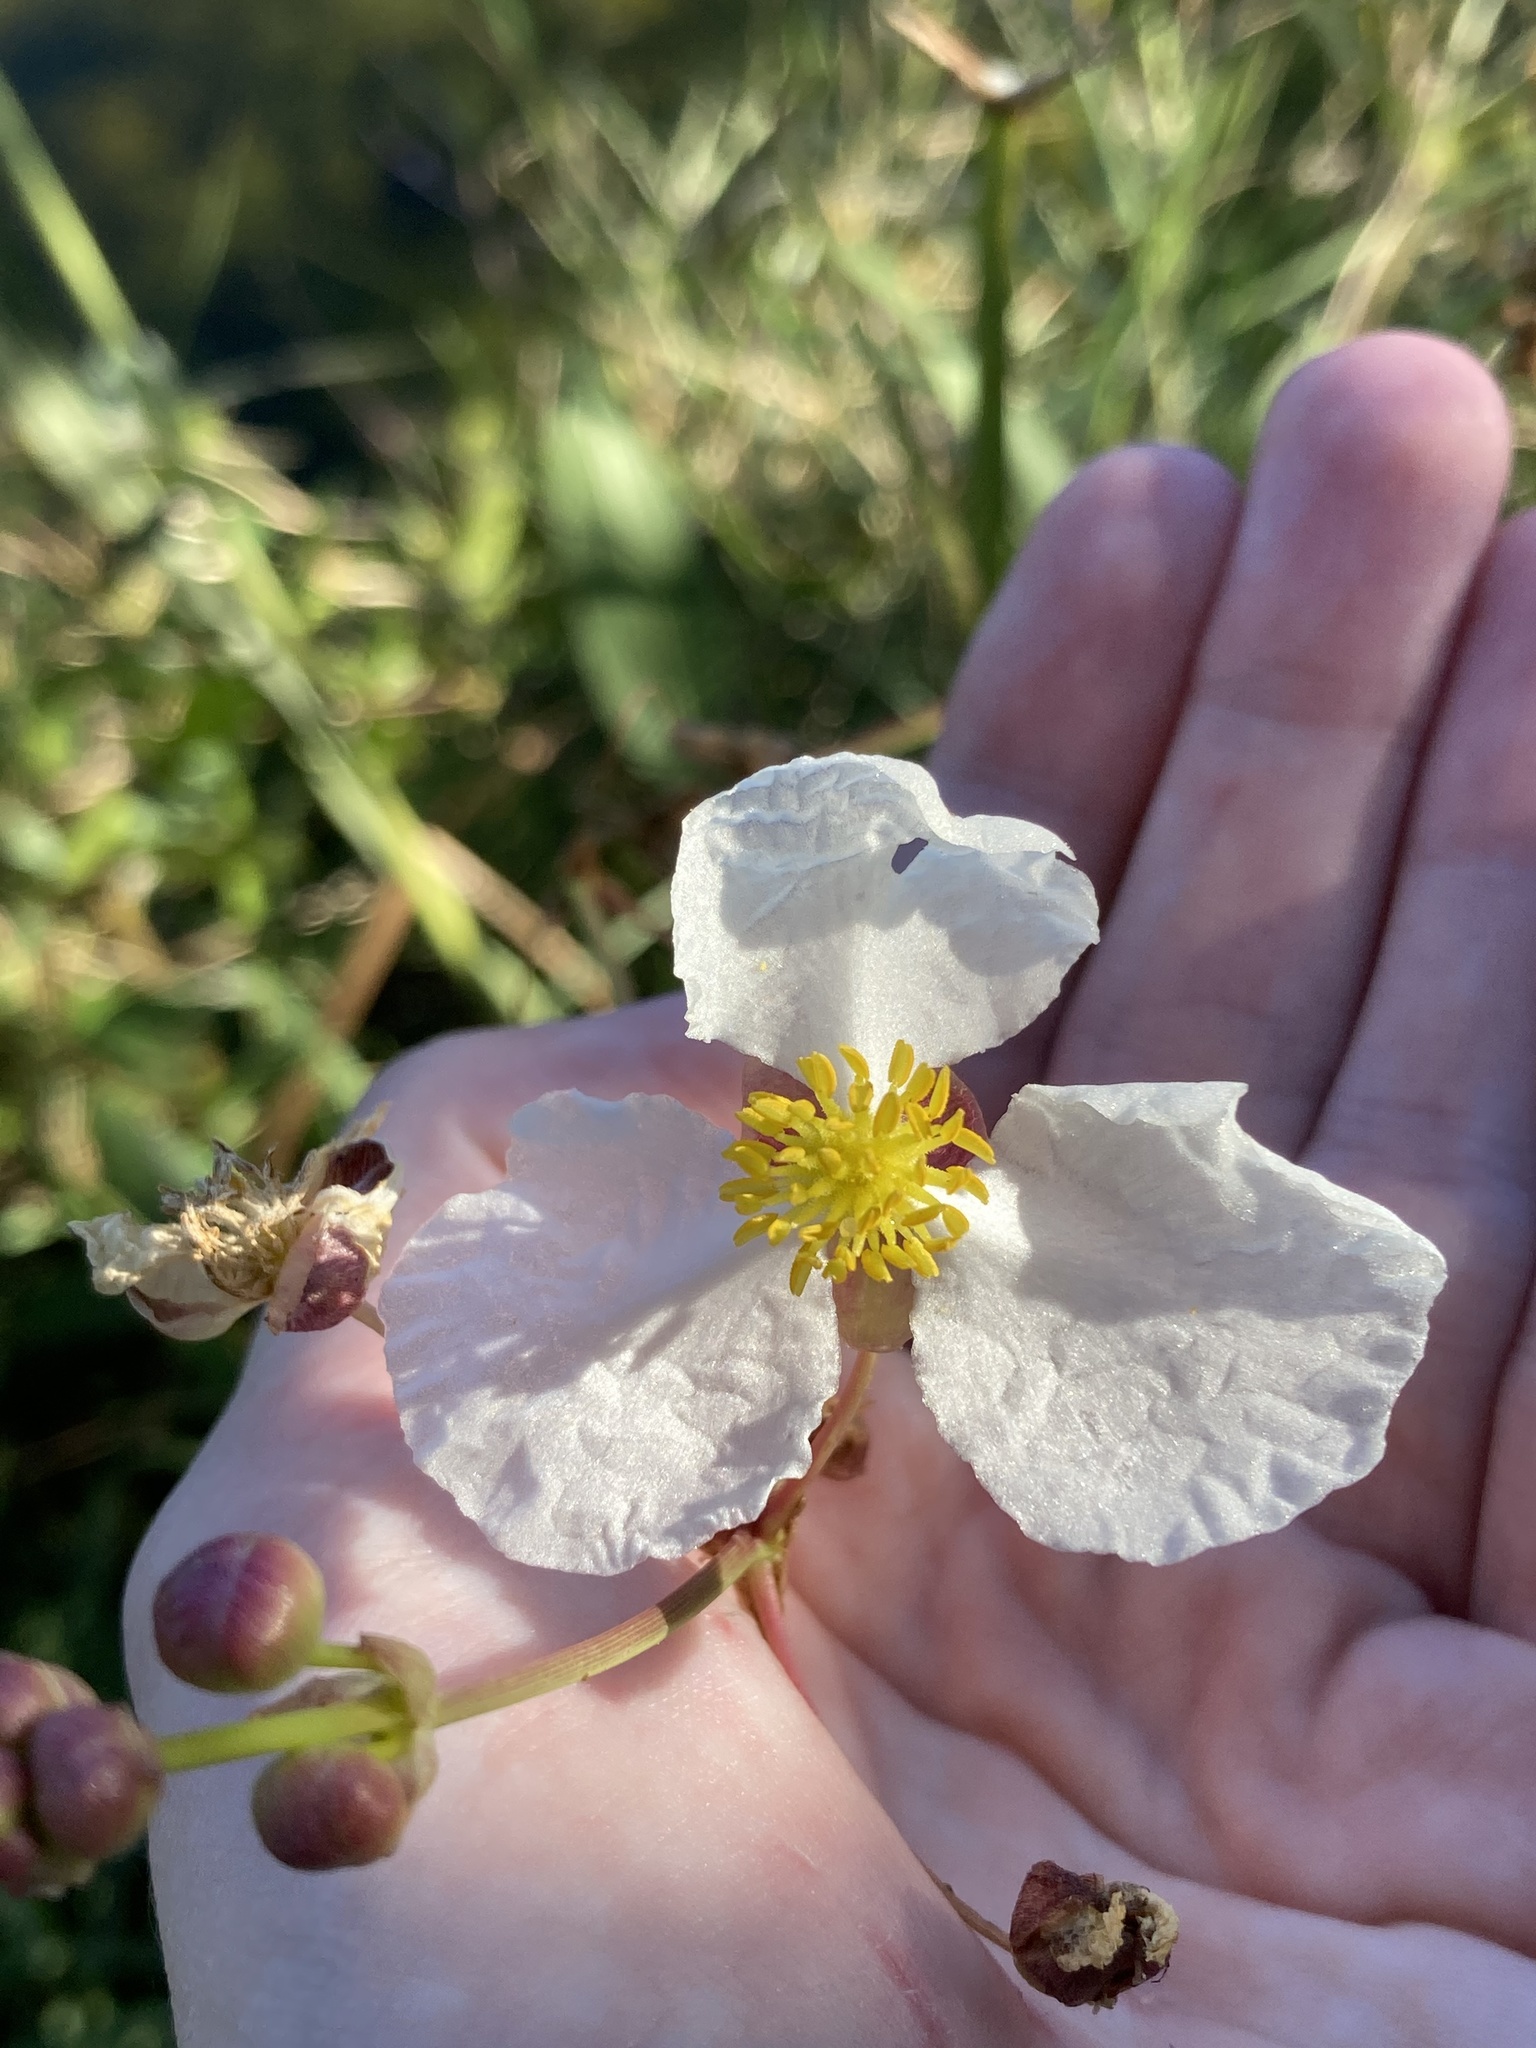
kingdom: Plantae
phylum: Tracheophyta
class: Liliopsida
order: Alismatales
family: Alismataceae
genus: Sagittaria
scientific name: Sagittaria lancifolia
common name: Lance-leaf arrowhead
